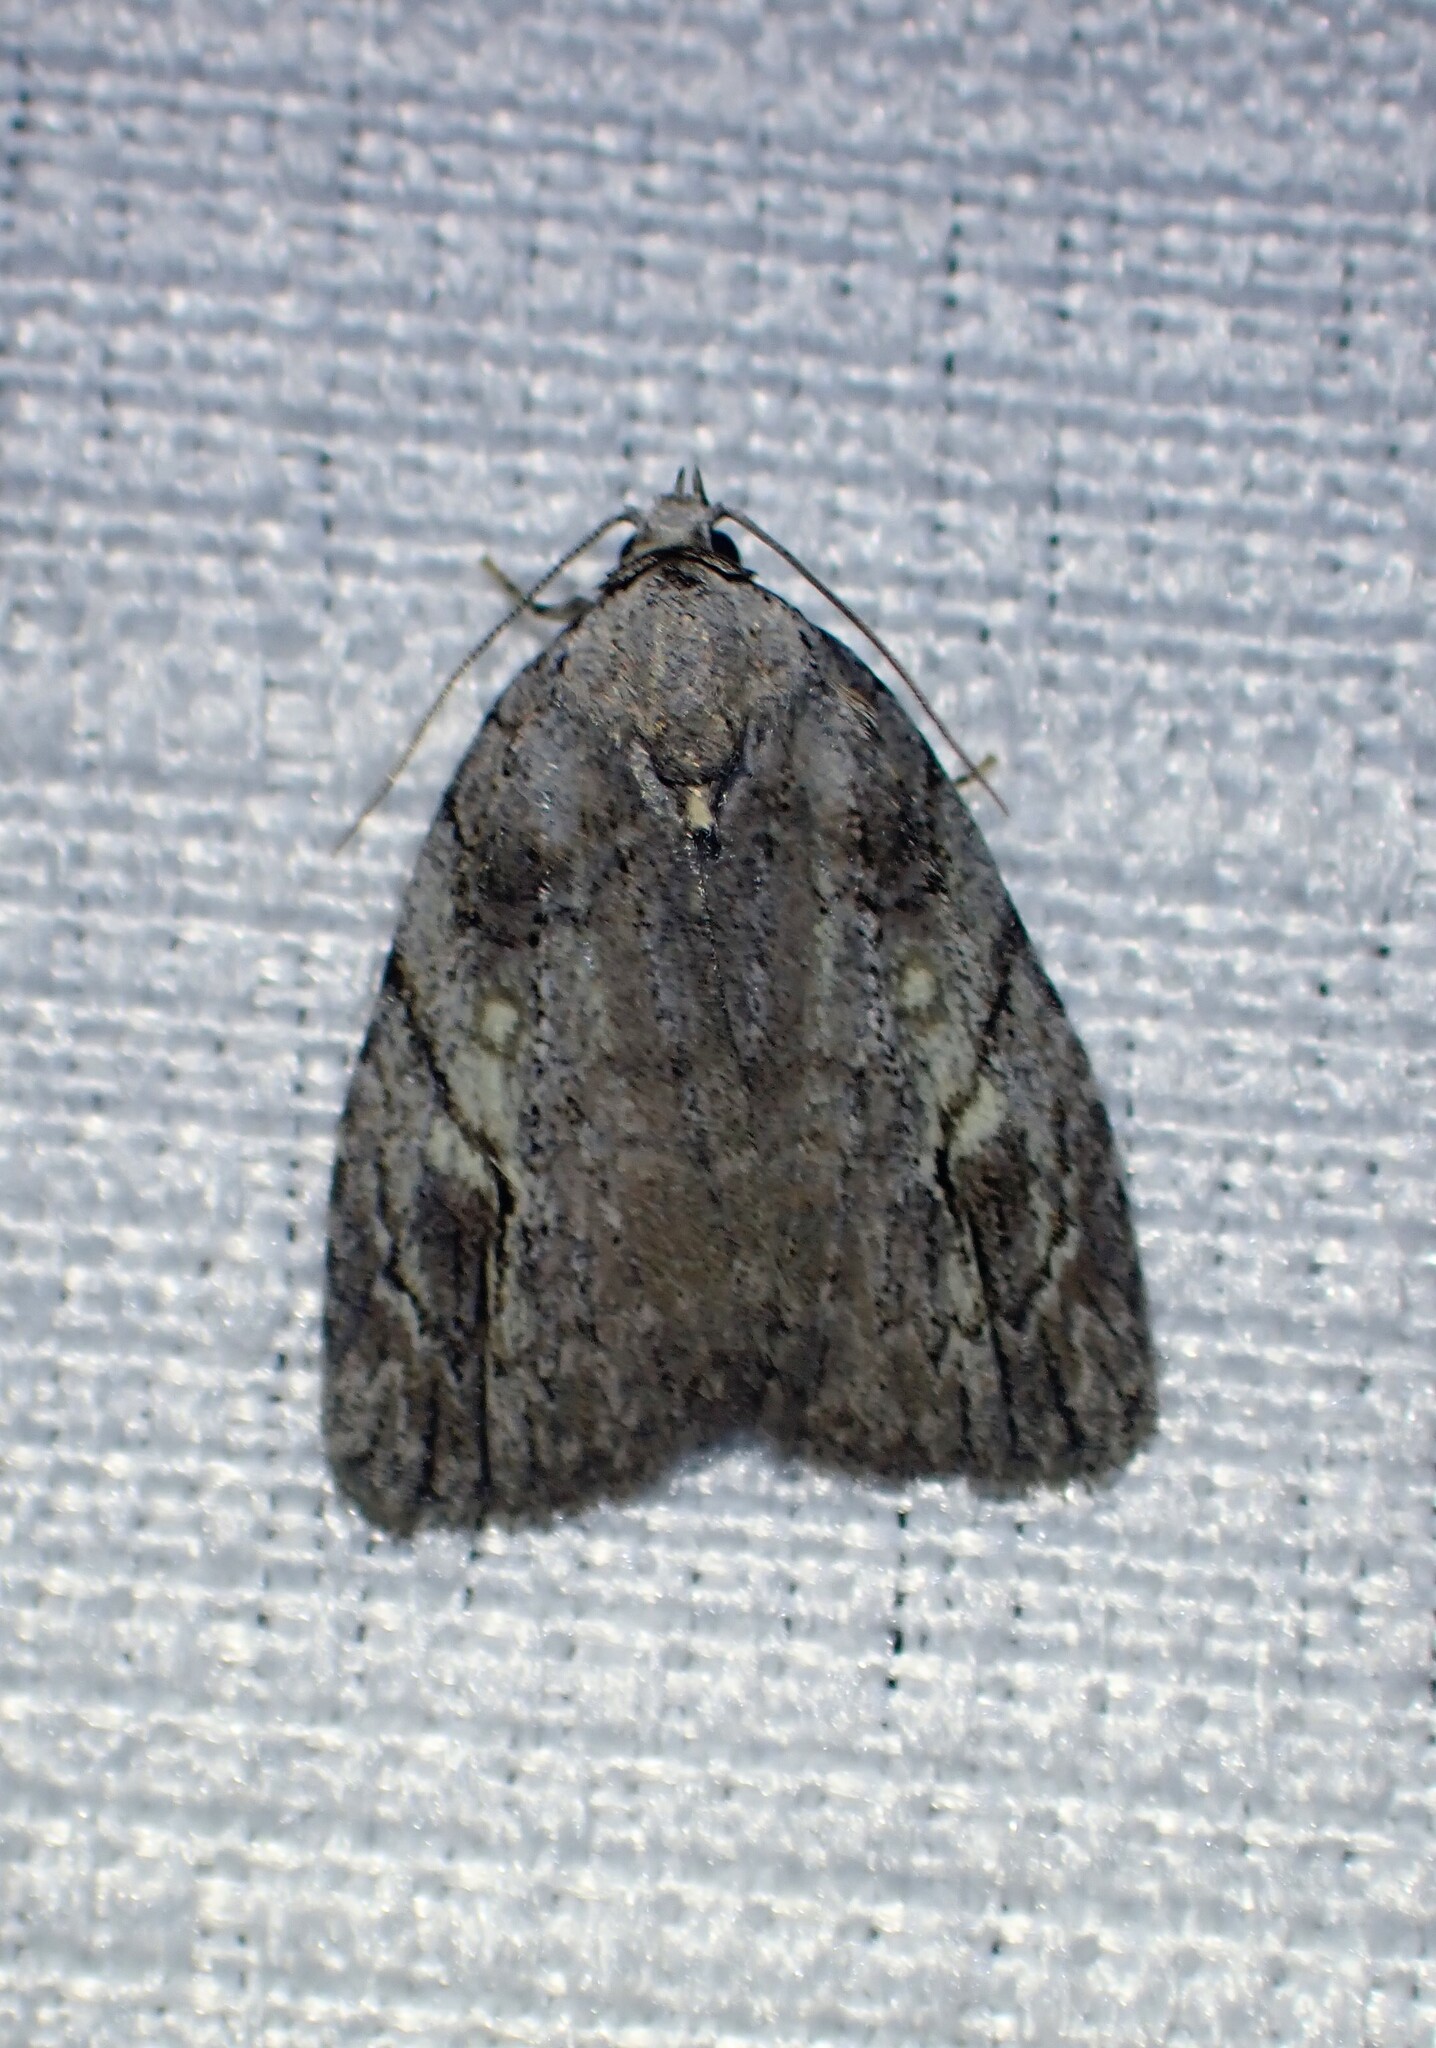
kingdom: Animalia
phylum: Arthropoda
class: Insecta
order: Lepidoptera
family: Noctuidae
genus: Balsa
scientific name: Balsa labecula
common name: White-blotched balsa moth
